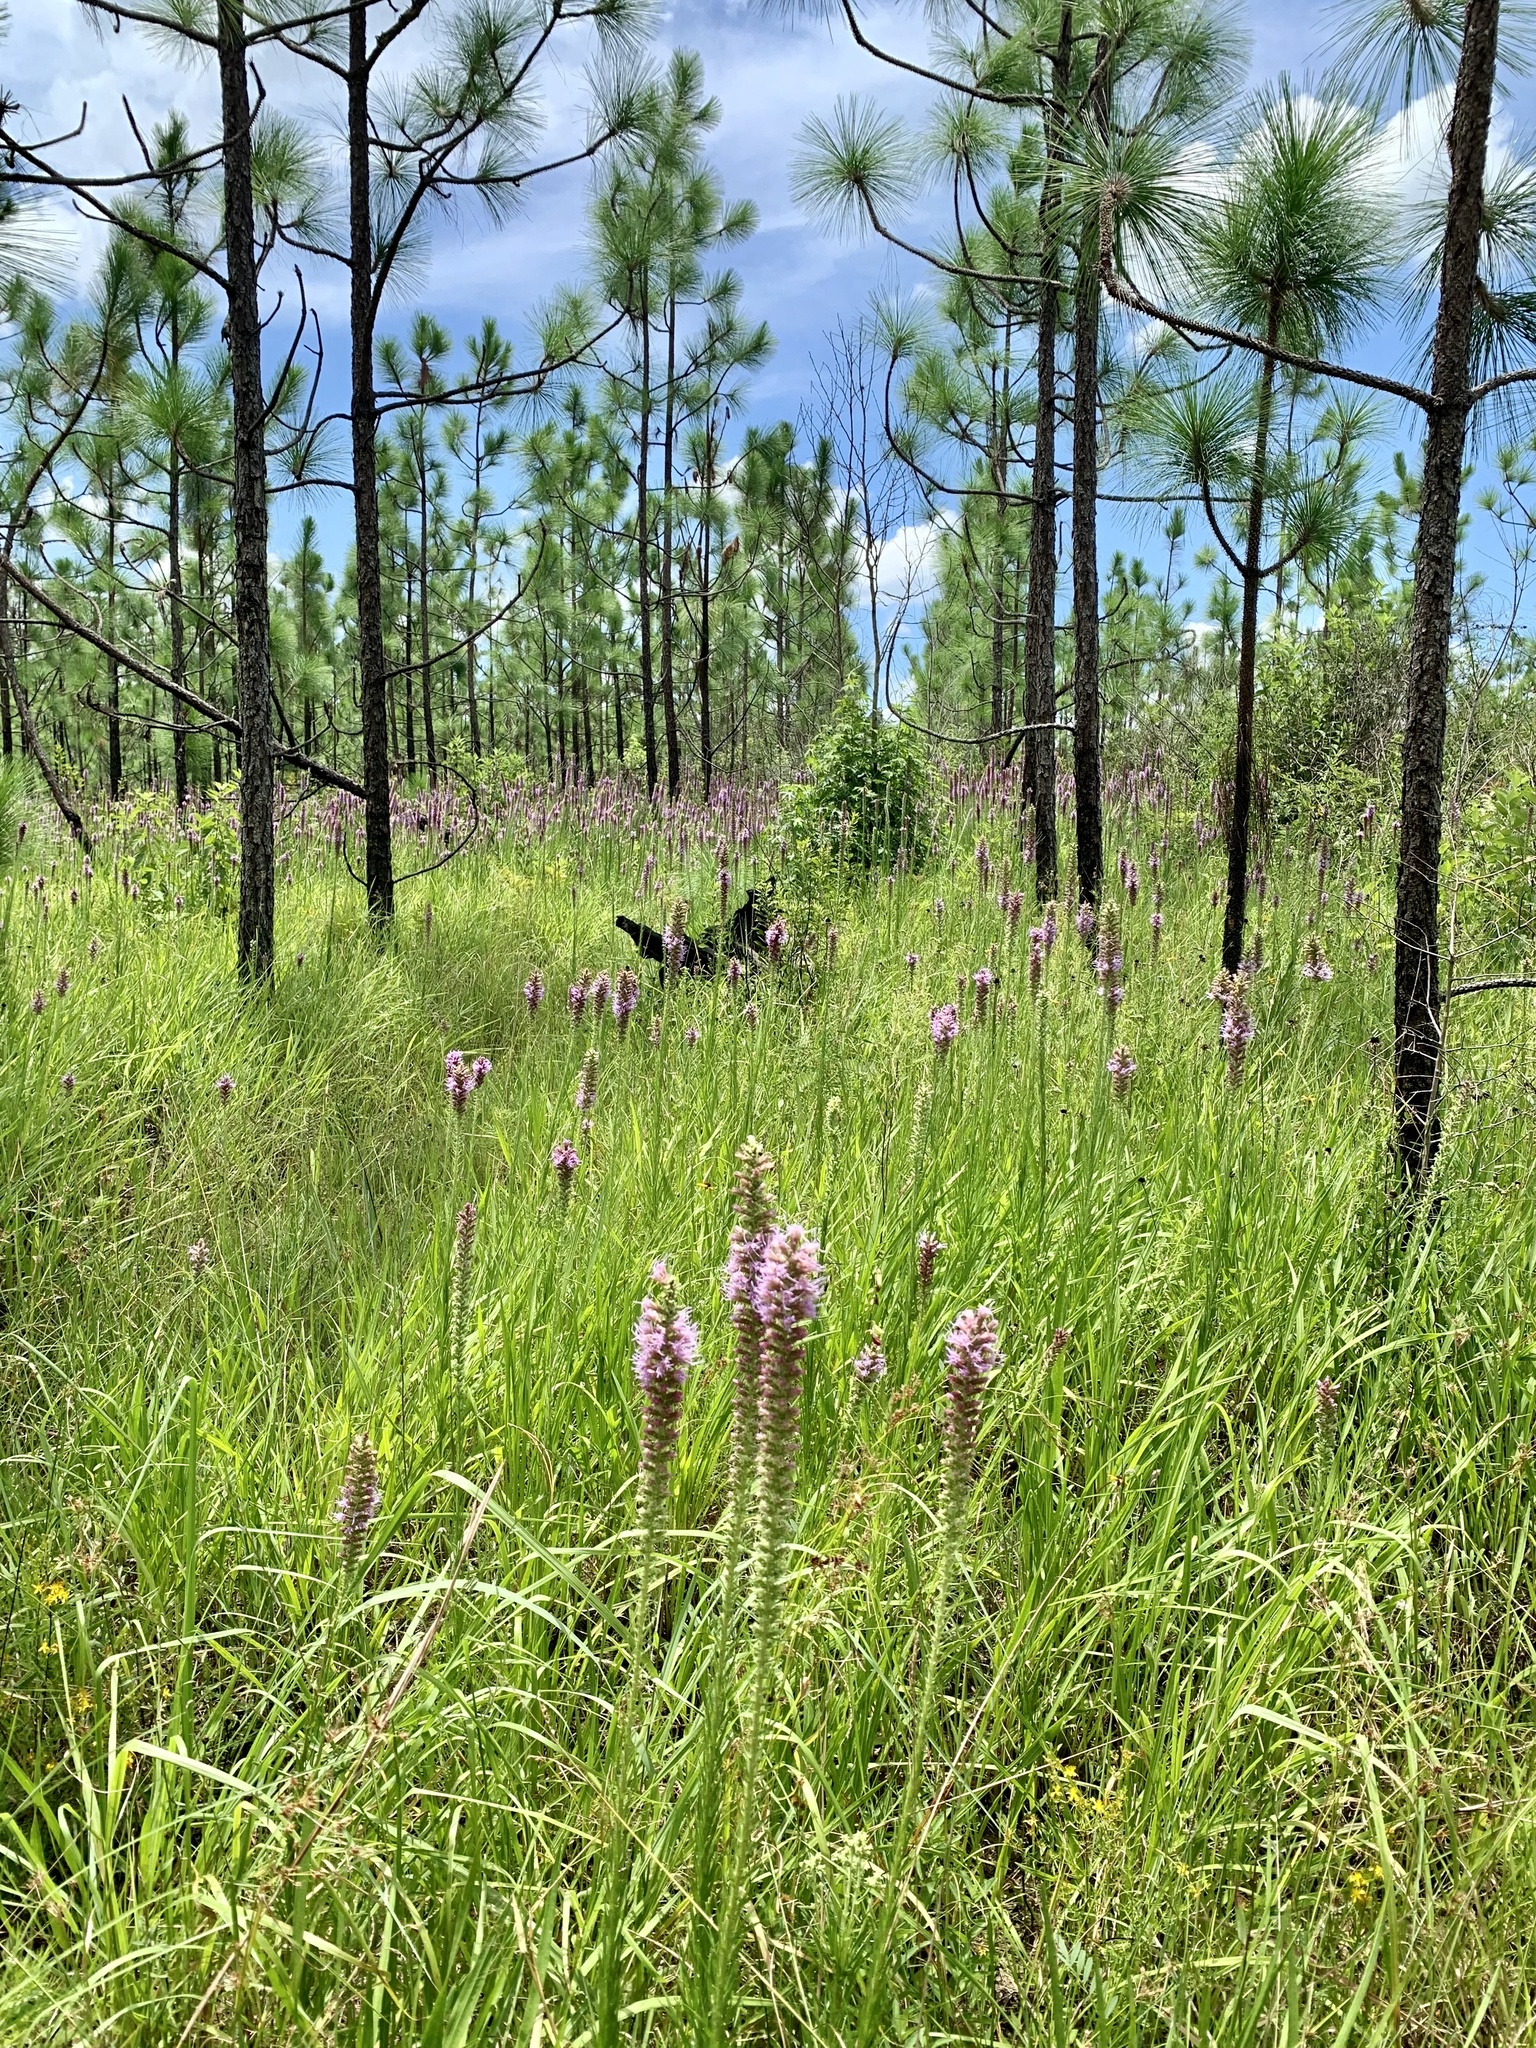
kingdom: Plantae
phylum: Tracheophyta
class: Magnoliopsida
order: Asterales
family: Asteraceae
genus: Liatris
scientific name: Liatris pycnostachya
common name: Cattail gayfeather
